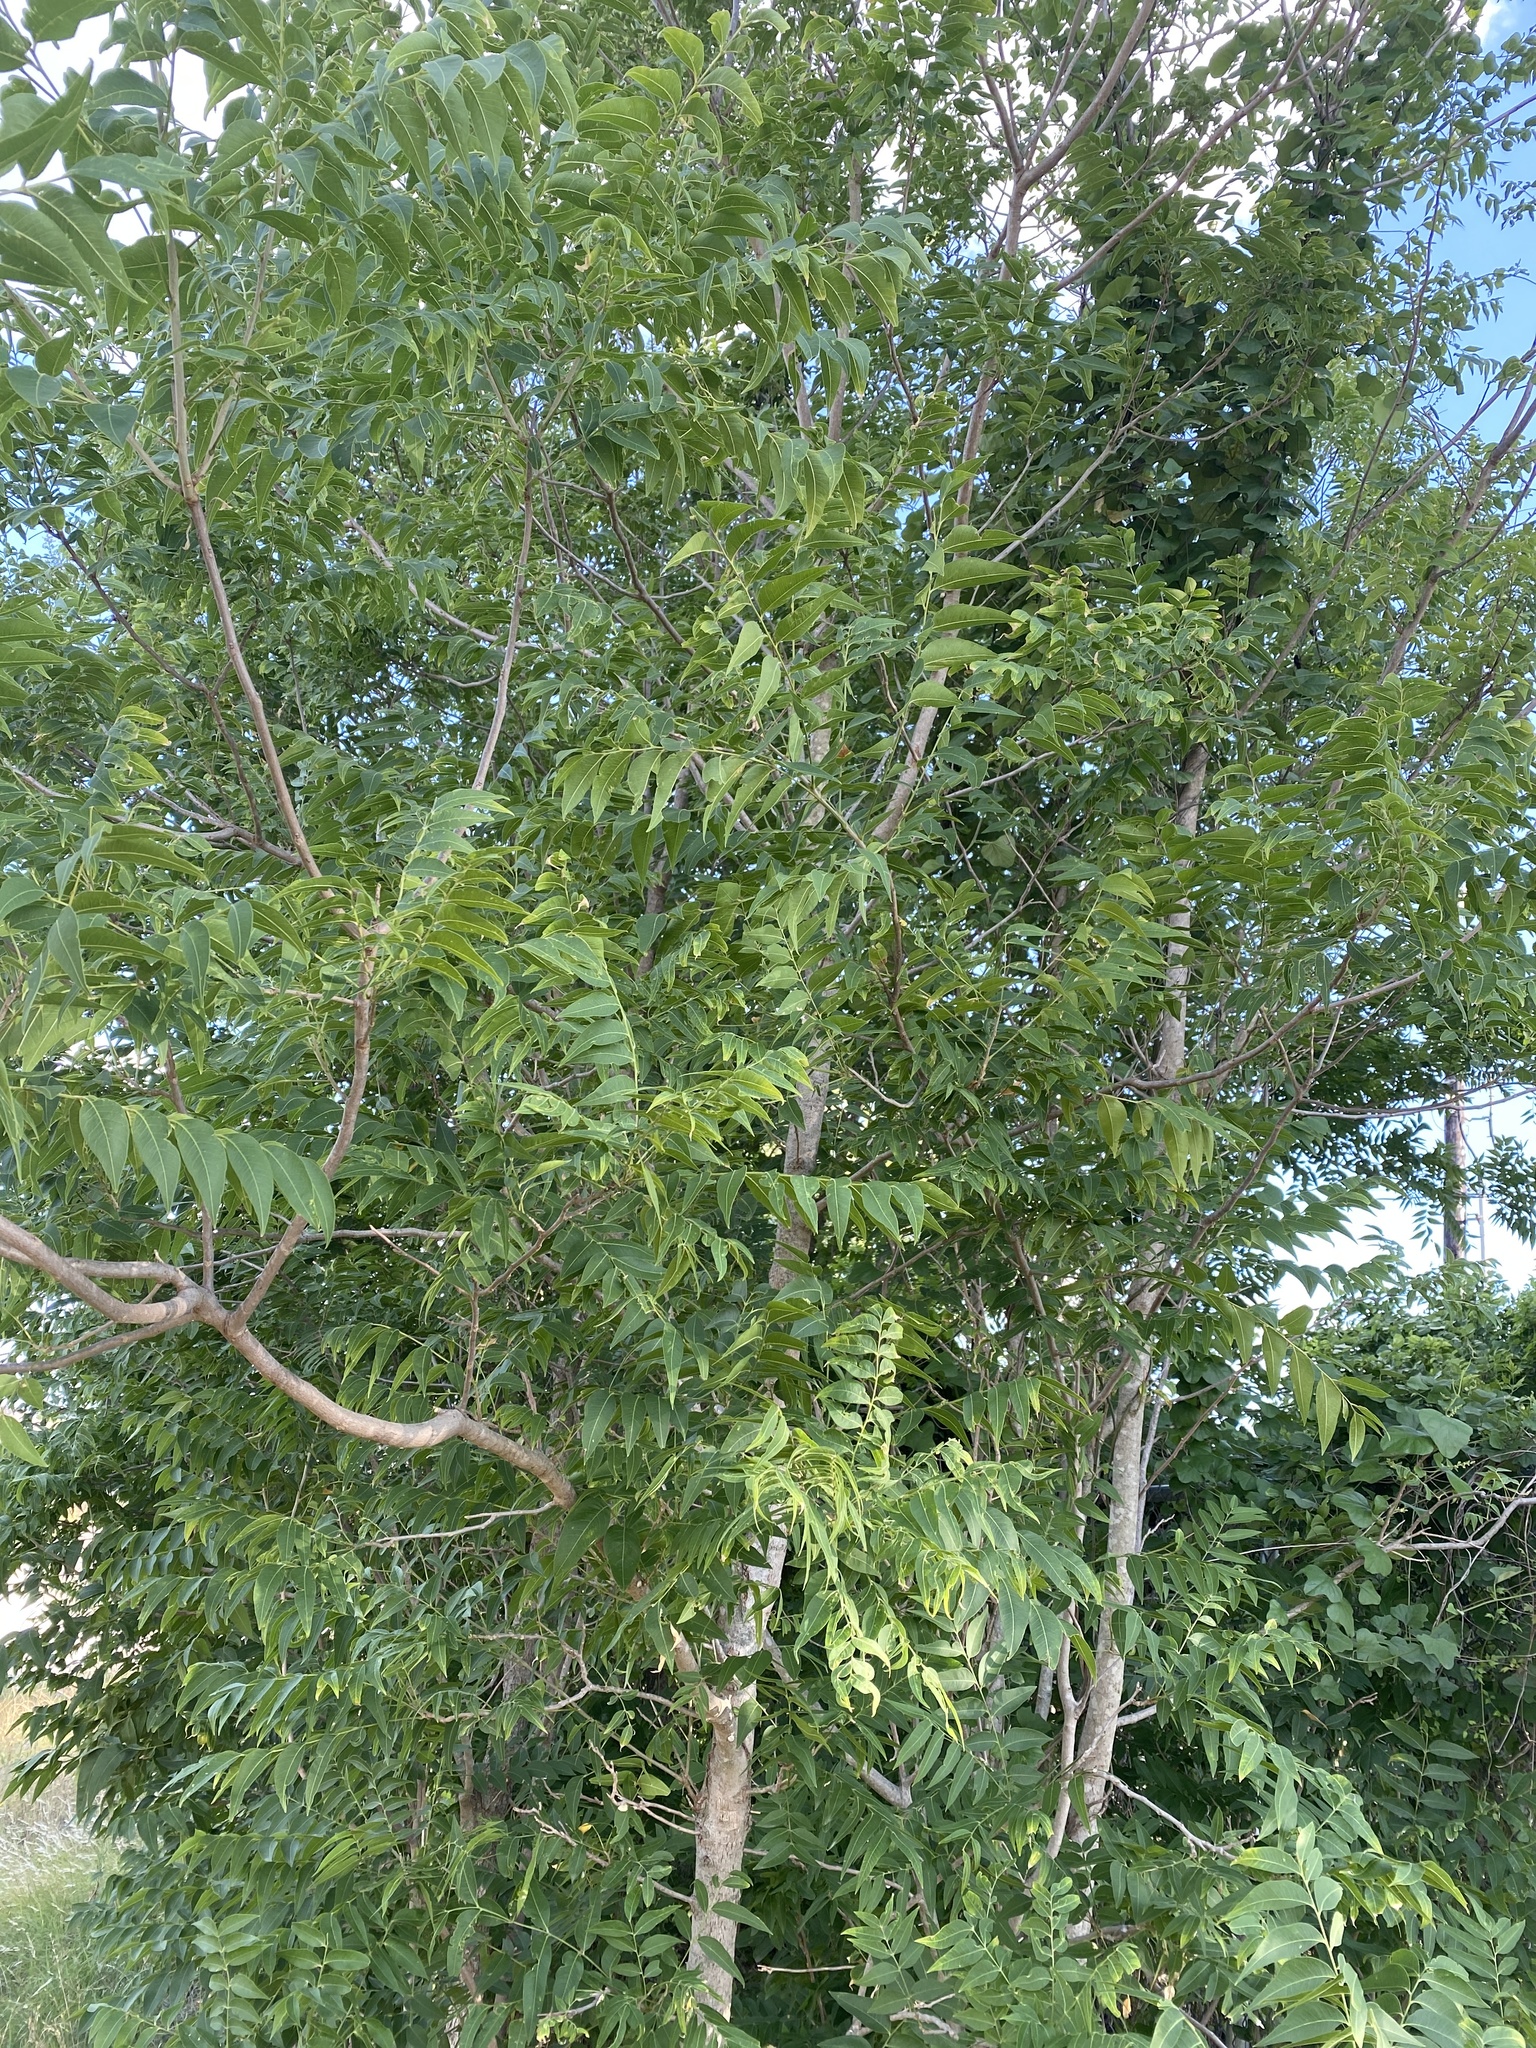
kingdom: Plantae
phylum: Tracheophyta
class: Magnoliopsida
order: Sapindales
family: Sapindaceae
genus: Sapindus
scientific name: Sapindus drummondii
